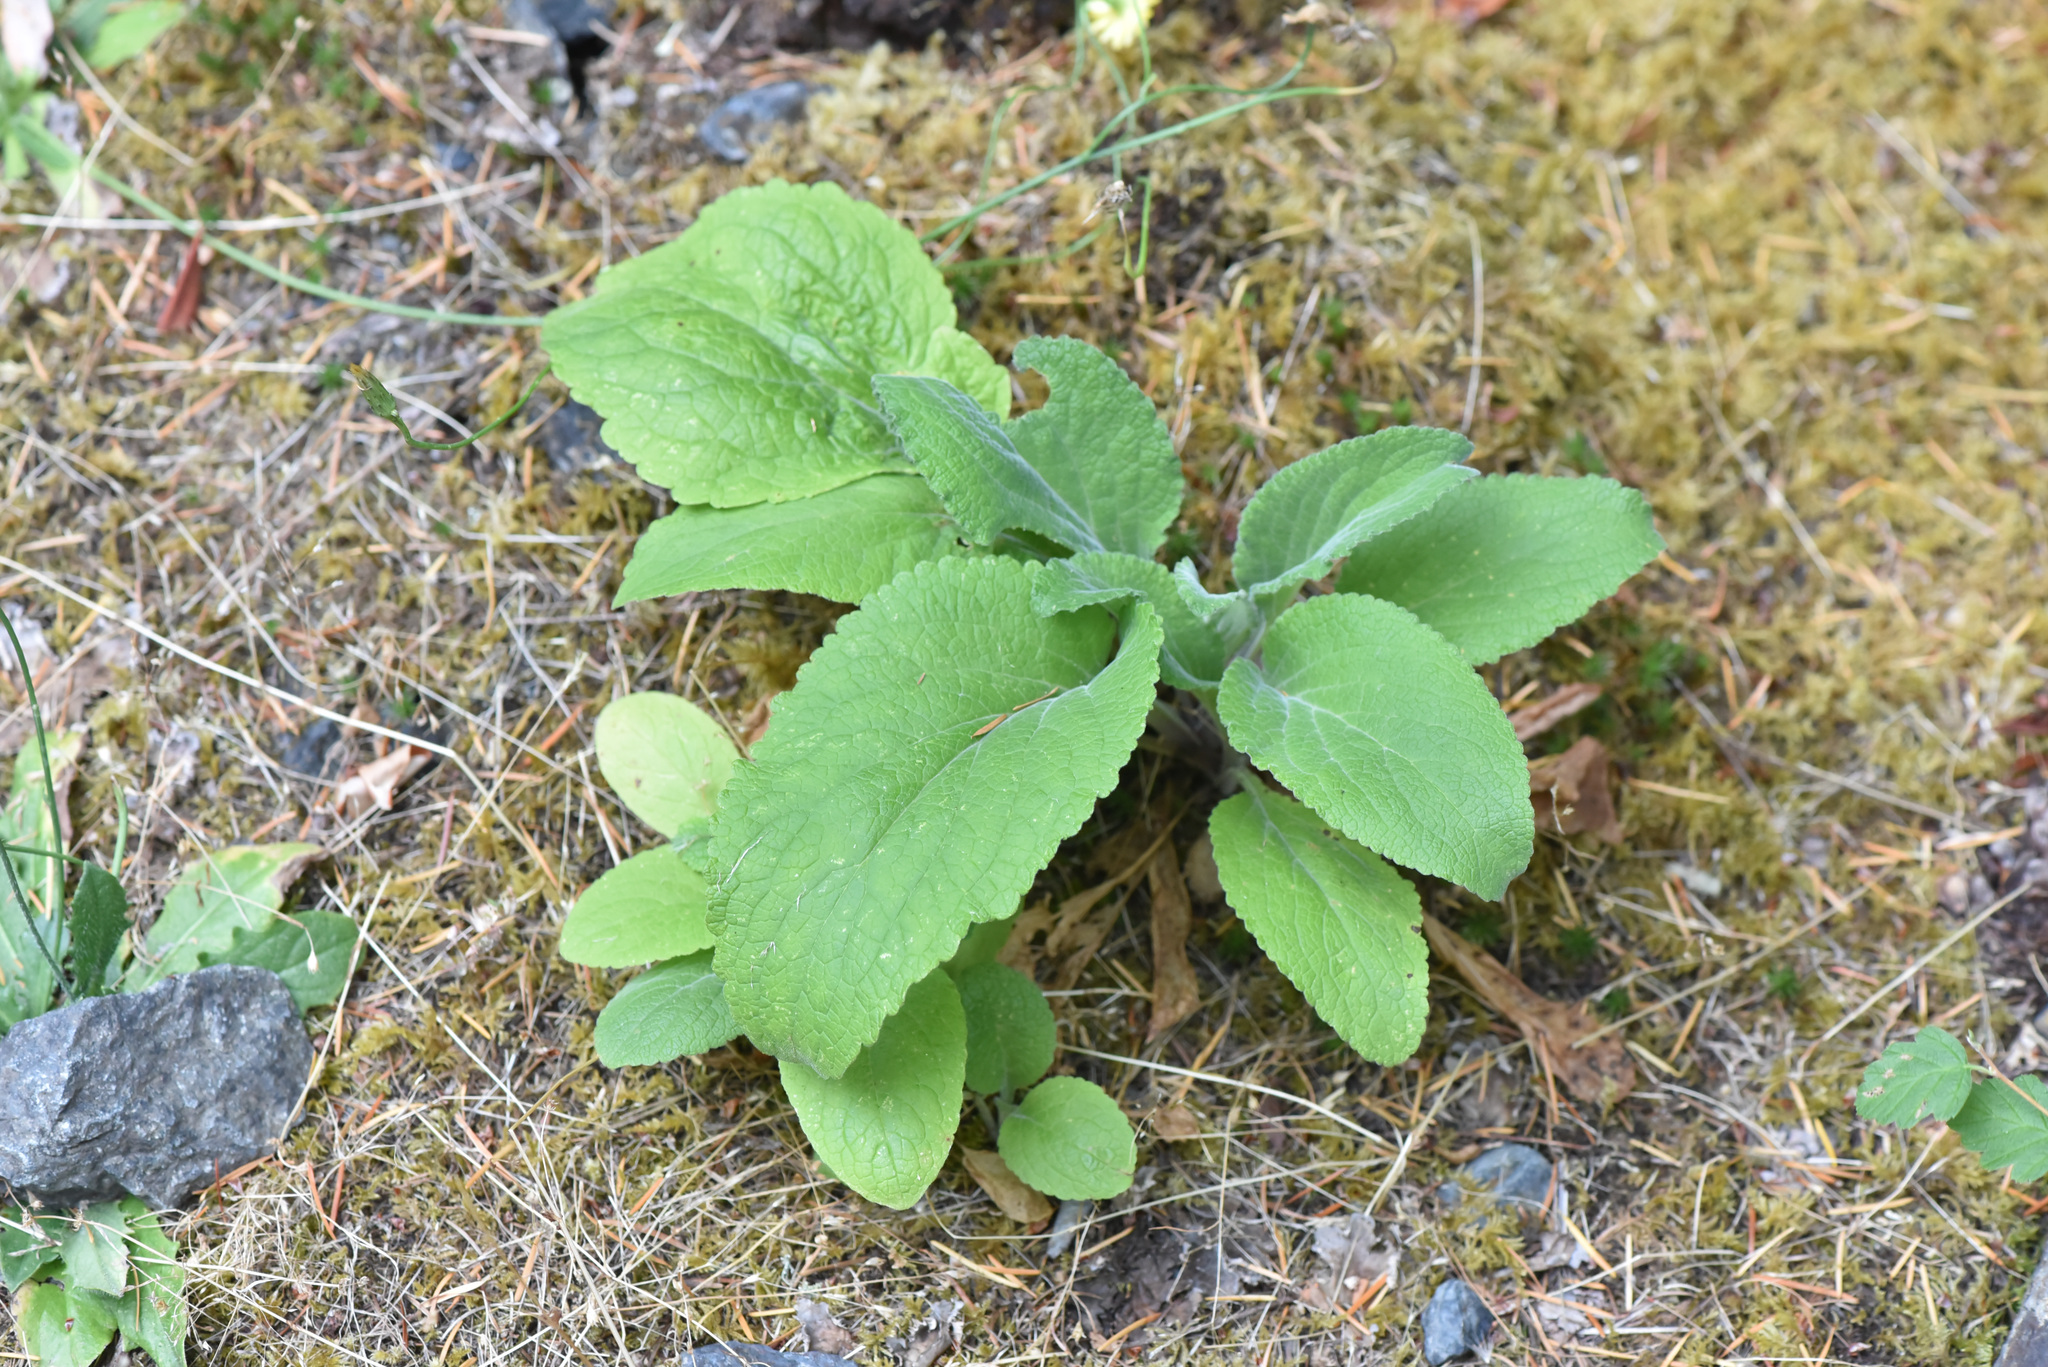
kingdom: Plantae
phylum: Tracheophyta
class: Magnoliopsida
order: Lamiales
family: Plantaginaceae
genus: Digitalis
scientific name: Digitalis purpurea
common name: Foxglove
